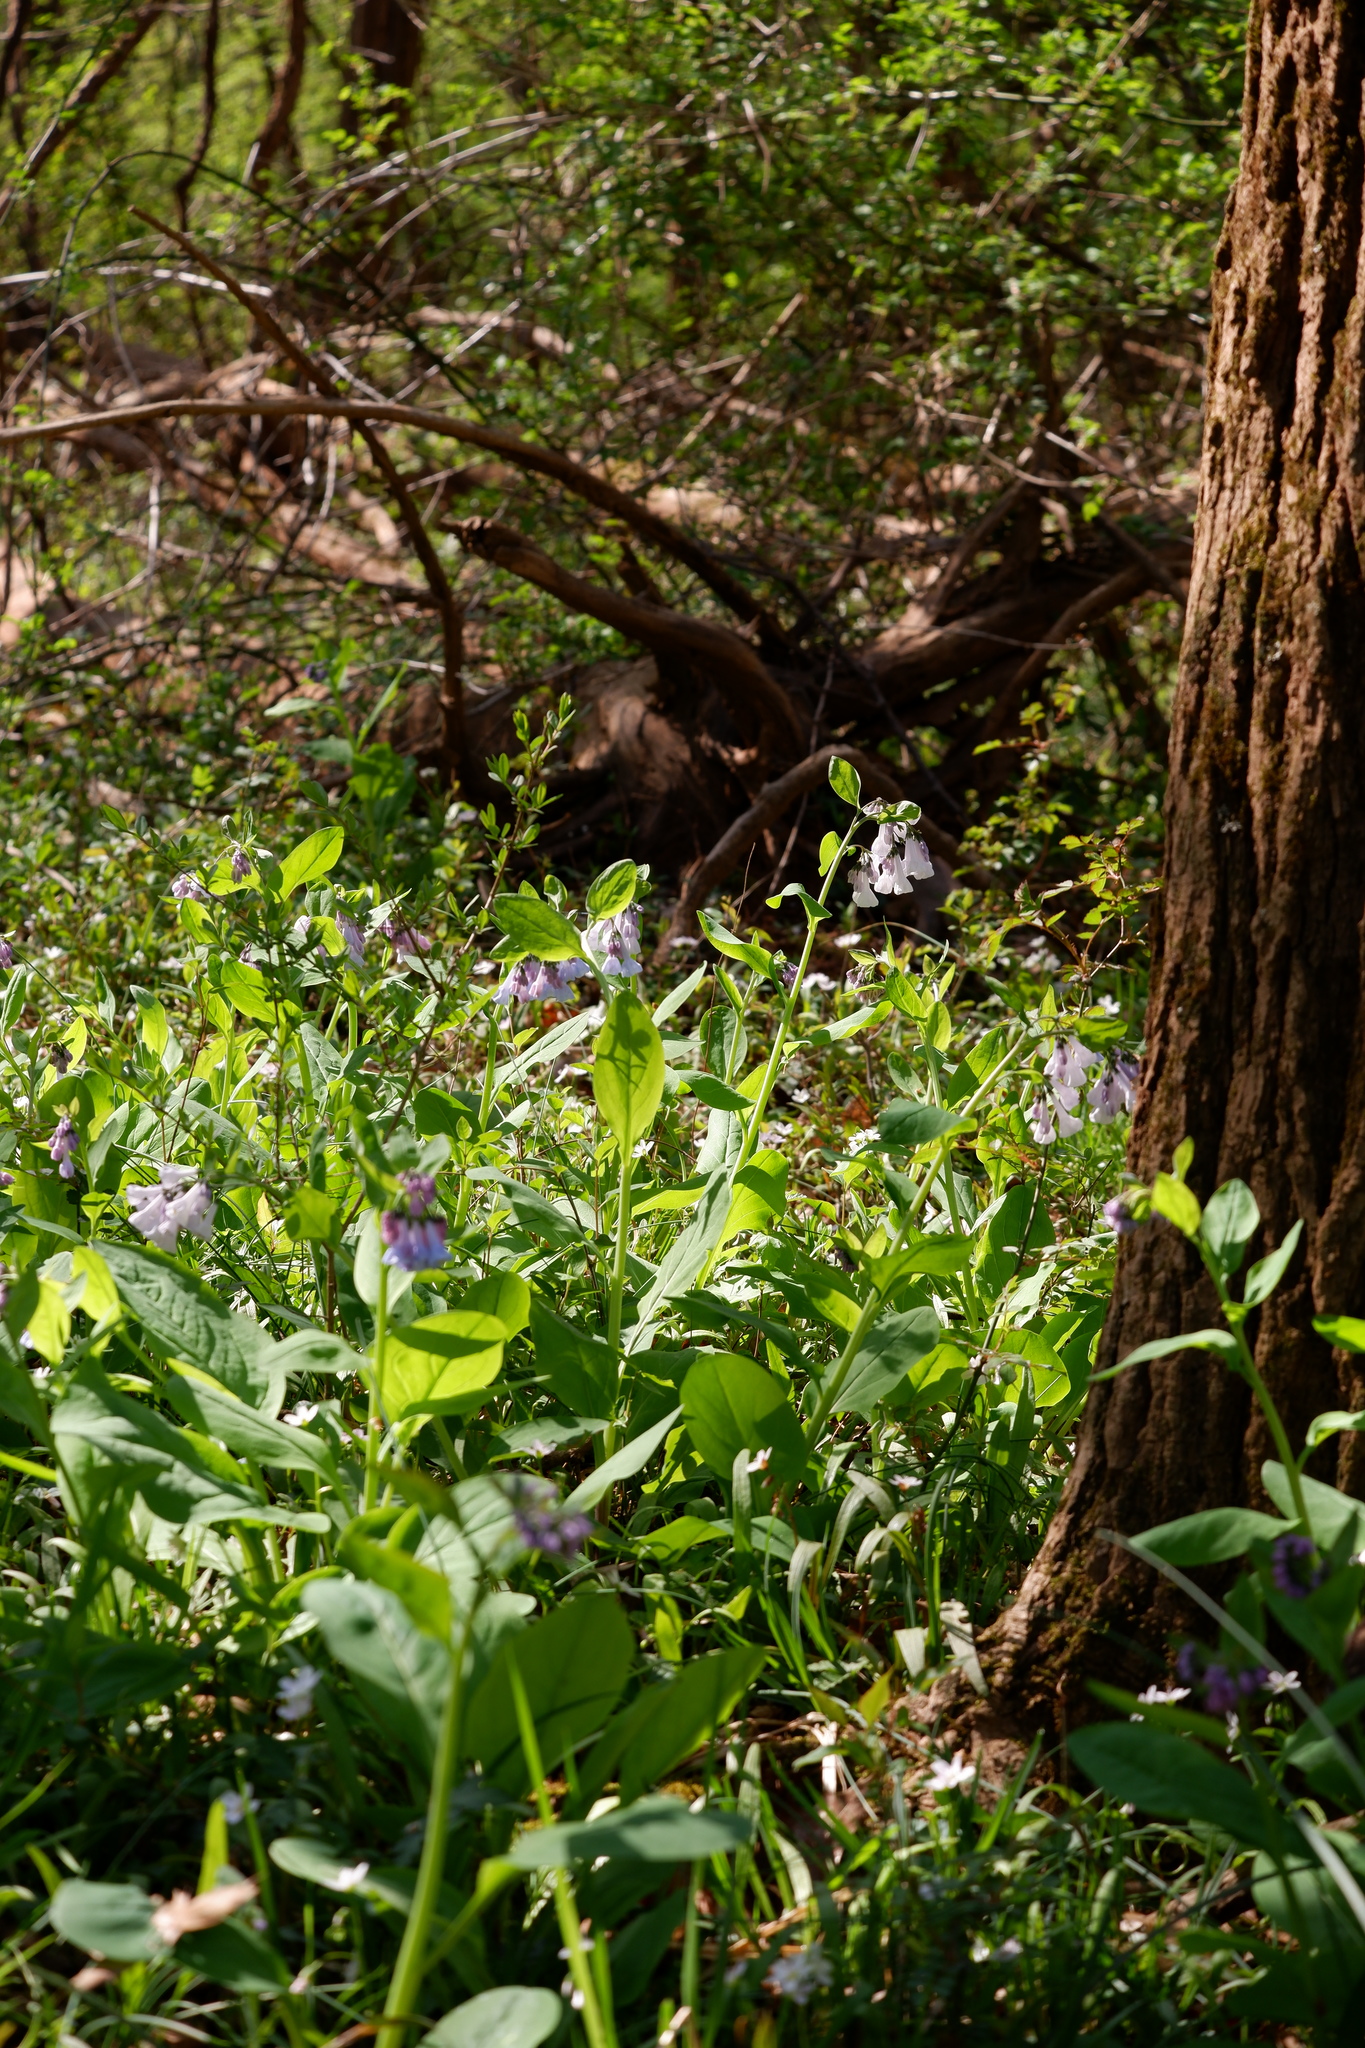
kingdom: Plantae
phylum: Tracheophyta
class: Magnoliopsida
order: Boraginales
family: Boraginaceae
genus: Mertensia
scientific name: Mertensia virginica
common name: Virginia bluebells
